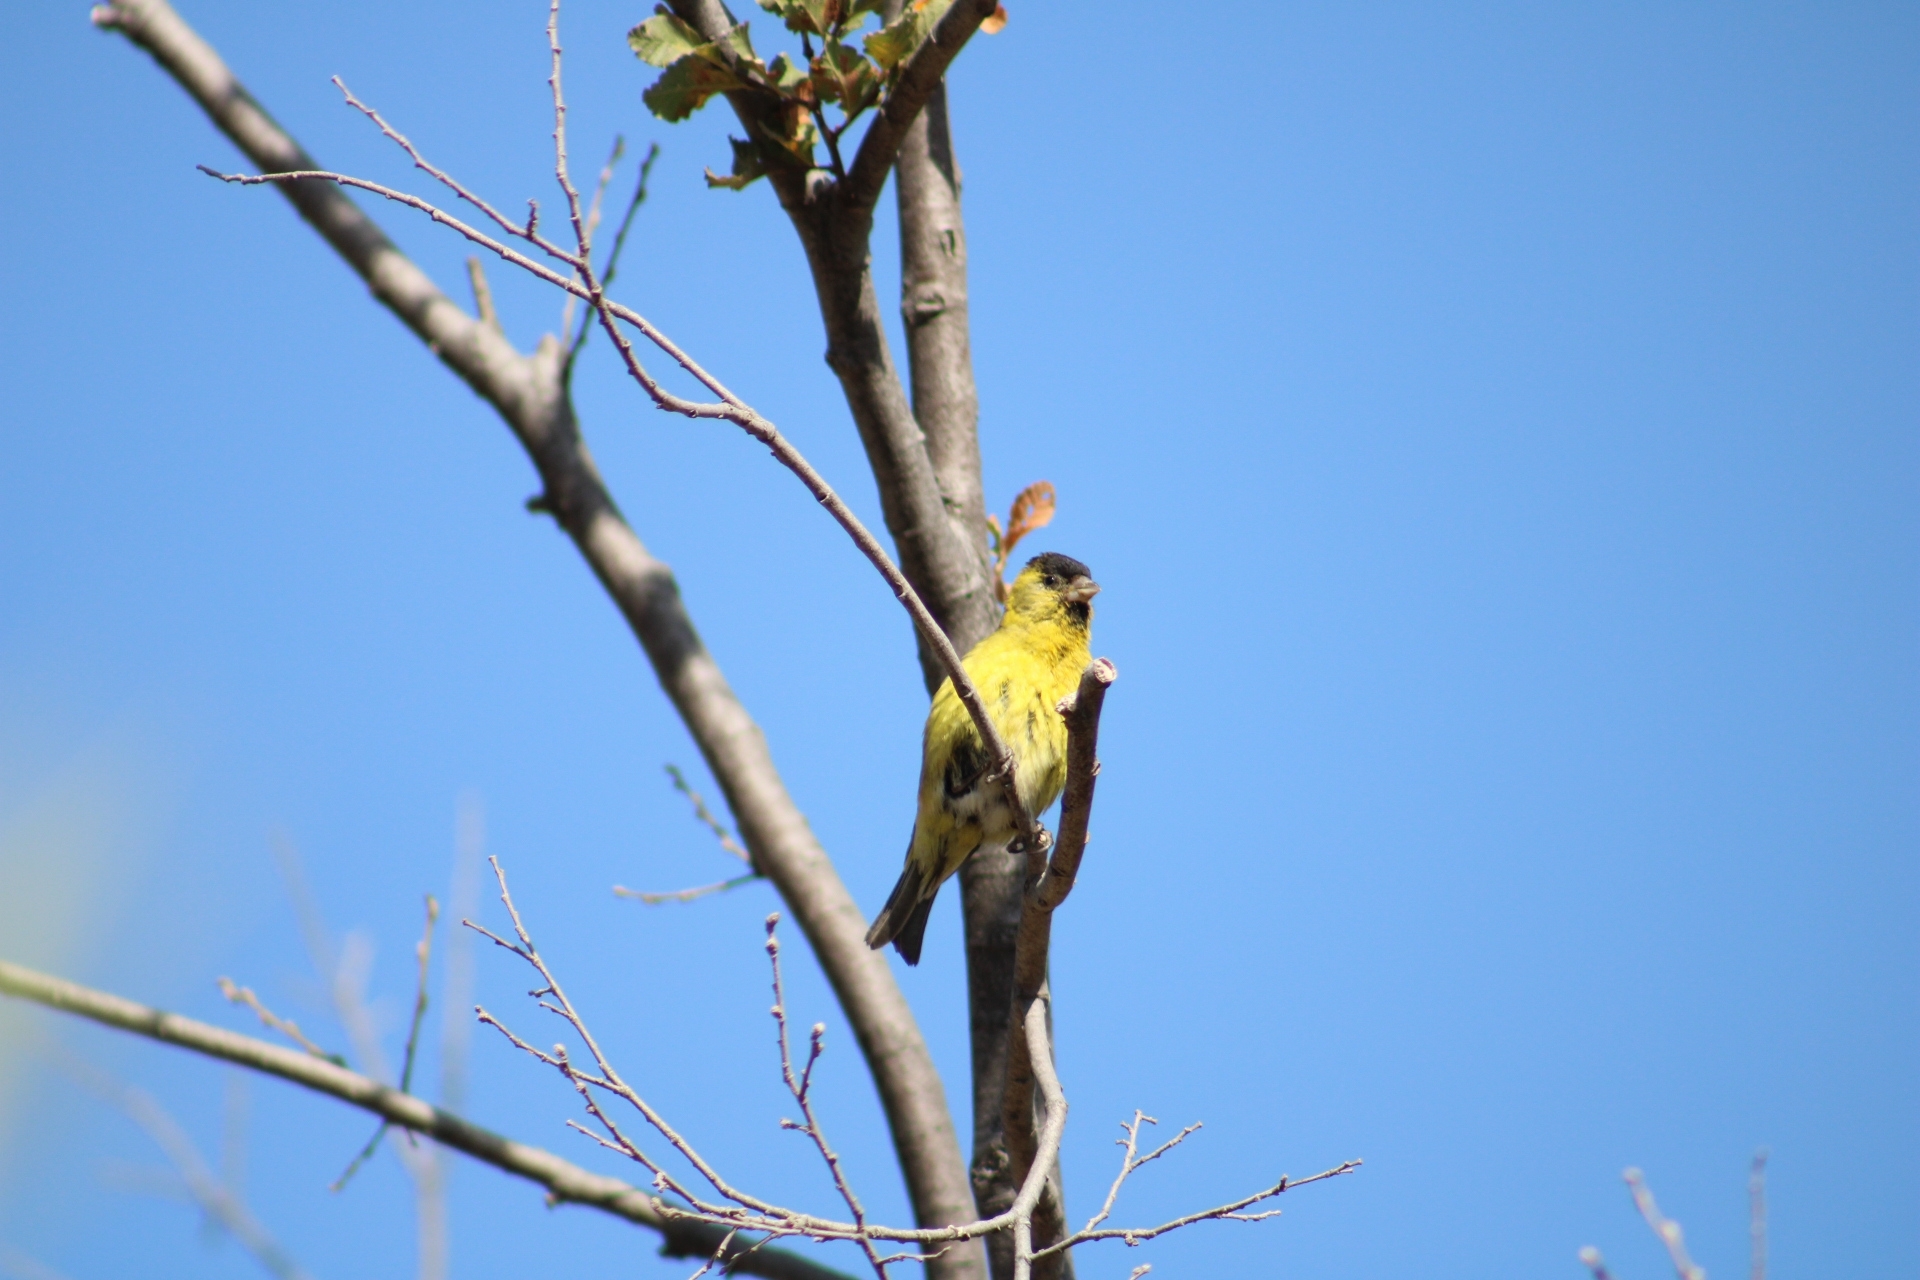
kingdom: Animalia
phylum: Chordata
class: Aves
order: Passeriformes
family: Fringillidae
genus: Spinus
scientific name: Spinus barbatus
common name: Black-chinned siskin
